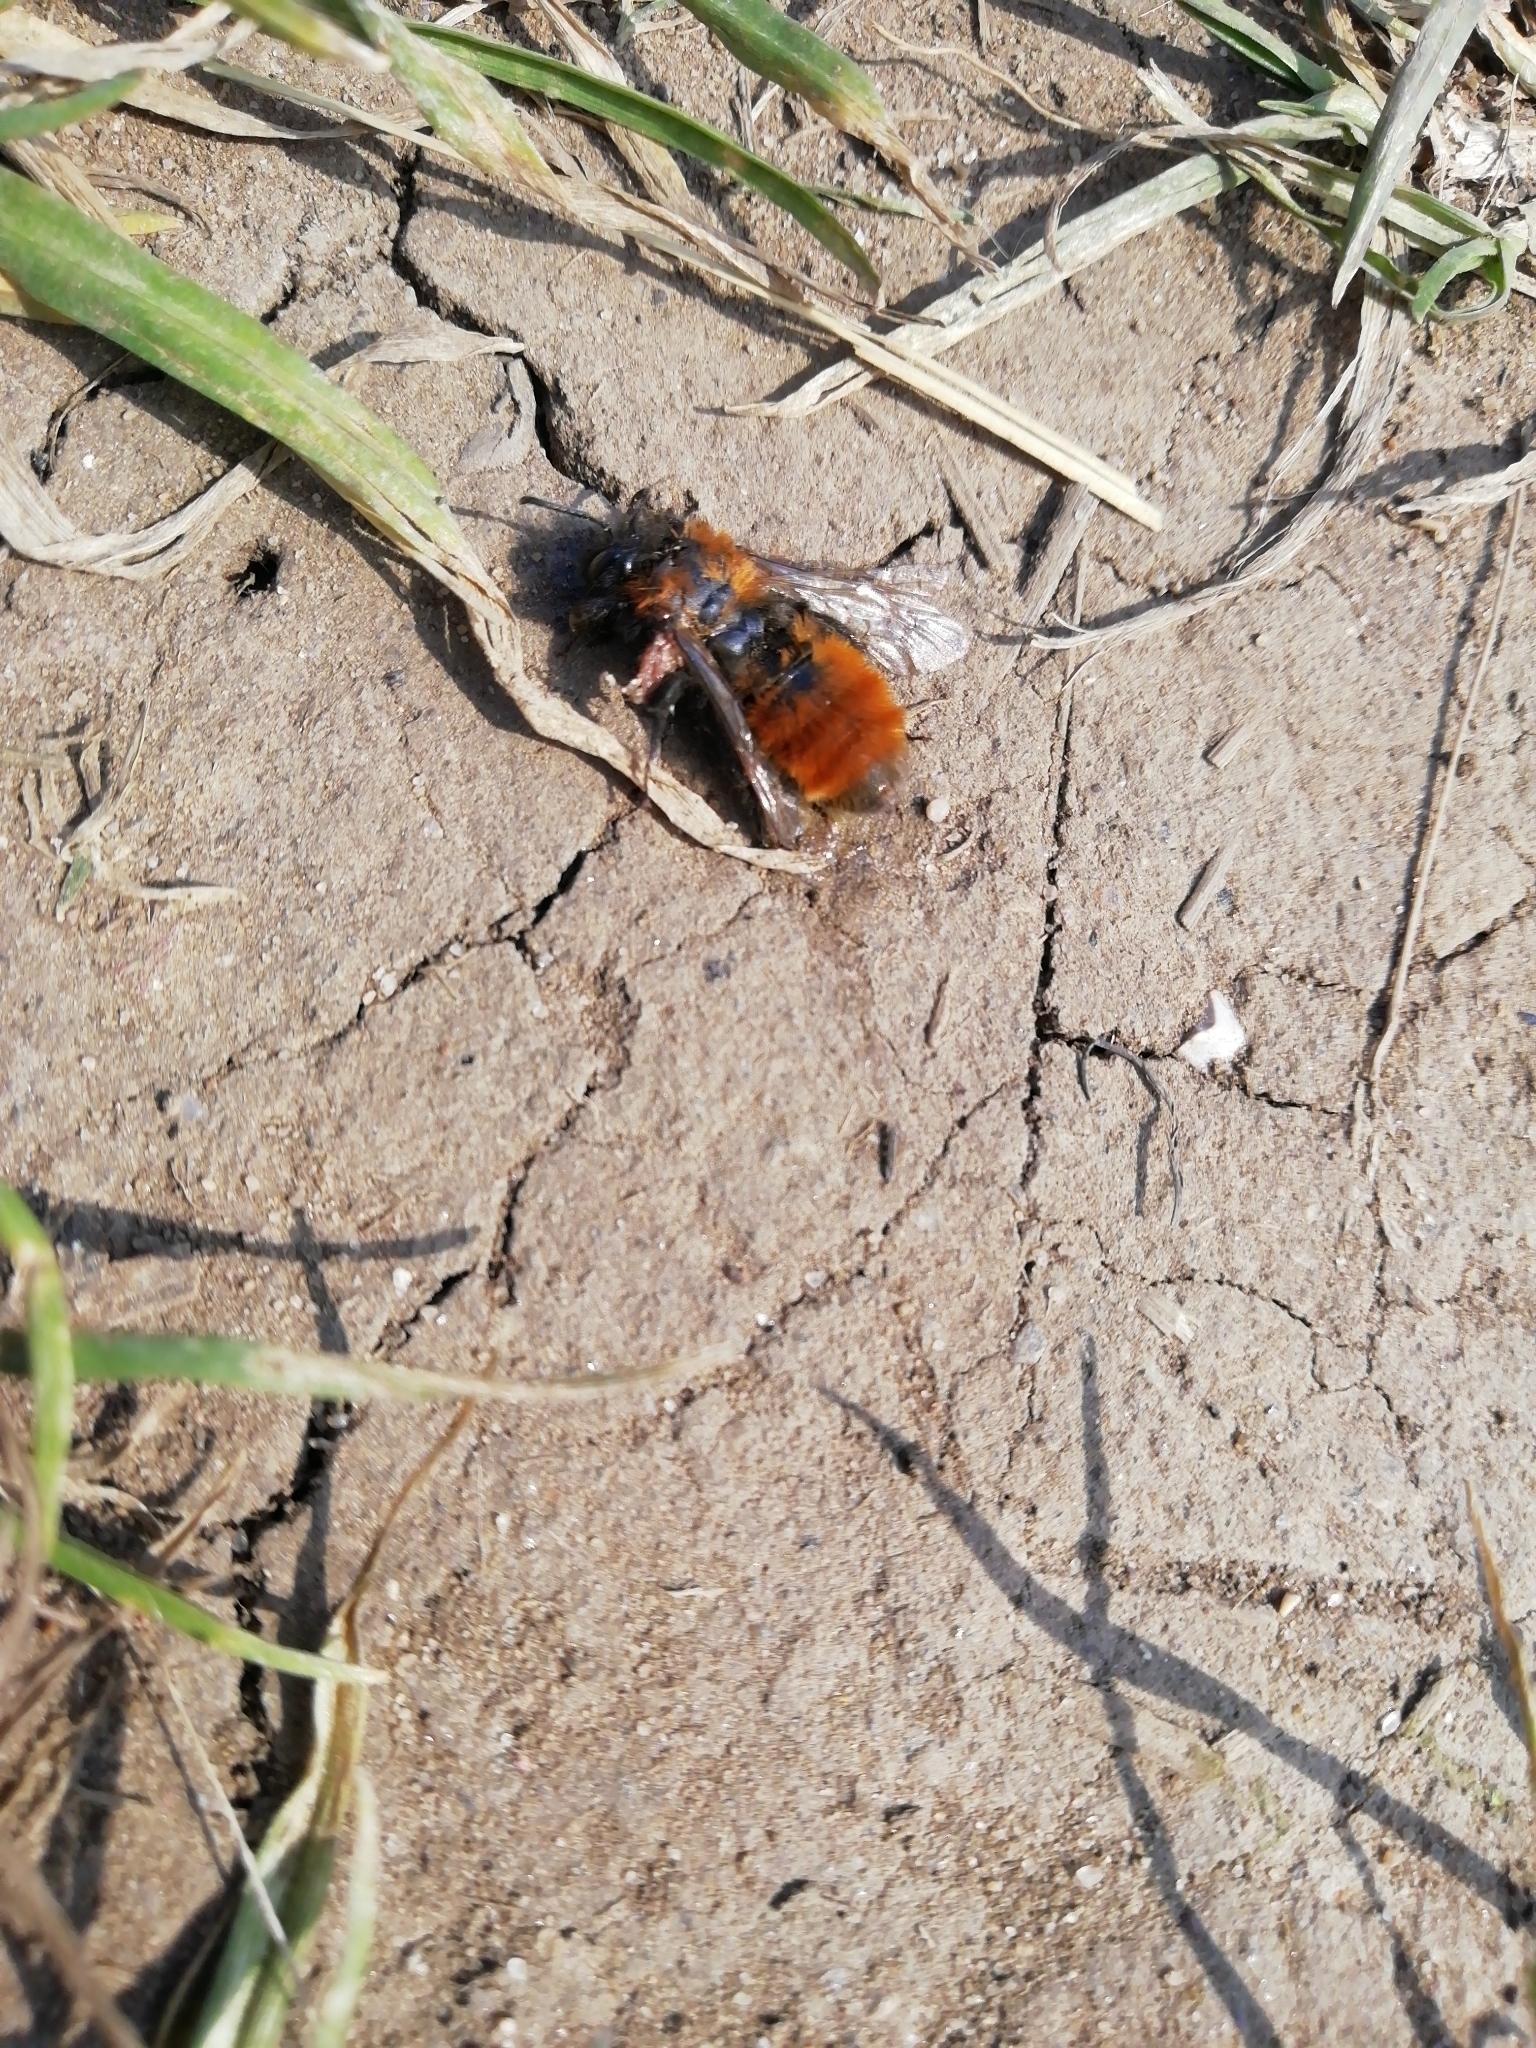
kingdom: Animalia
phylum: Arthropoda
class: Insecta
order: Hymenoptera
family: Andrenidae
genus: Andrena
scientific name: Andrena fulva
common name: Tawny mining bee
